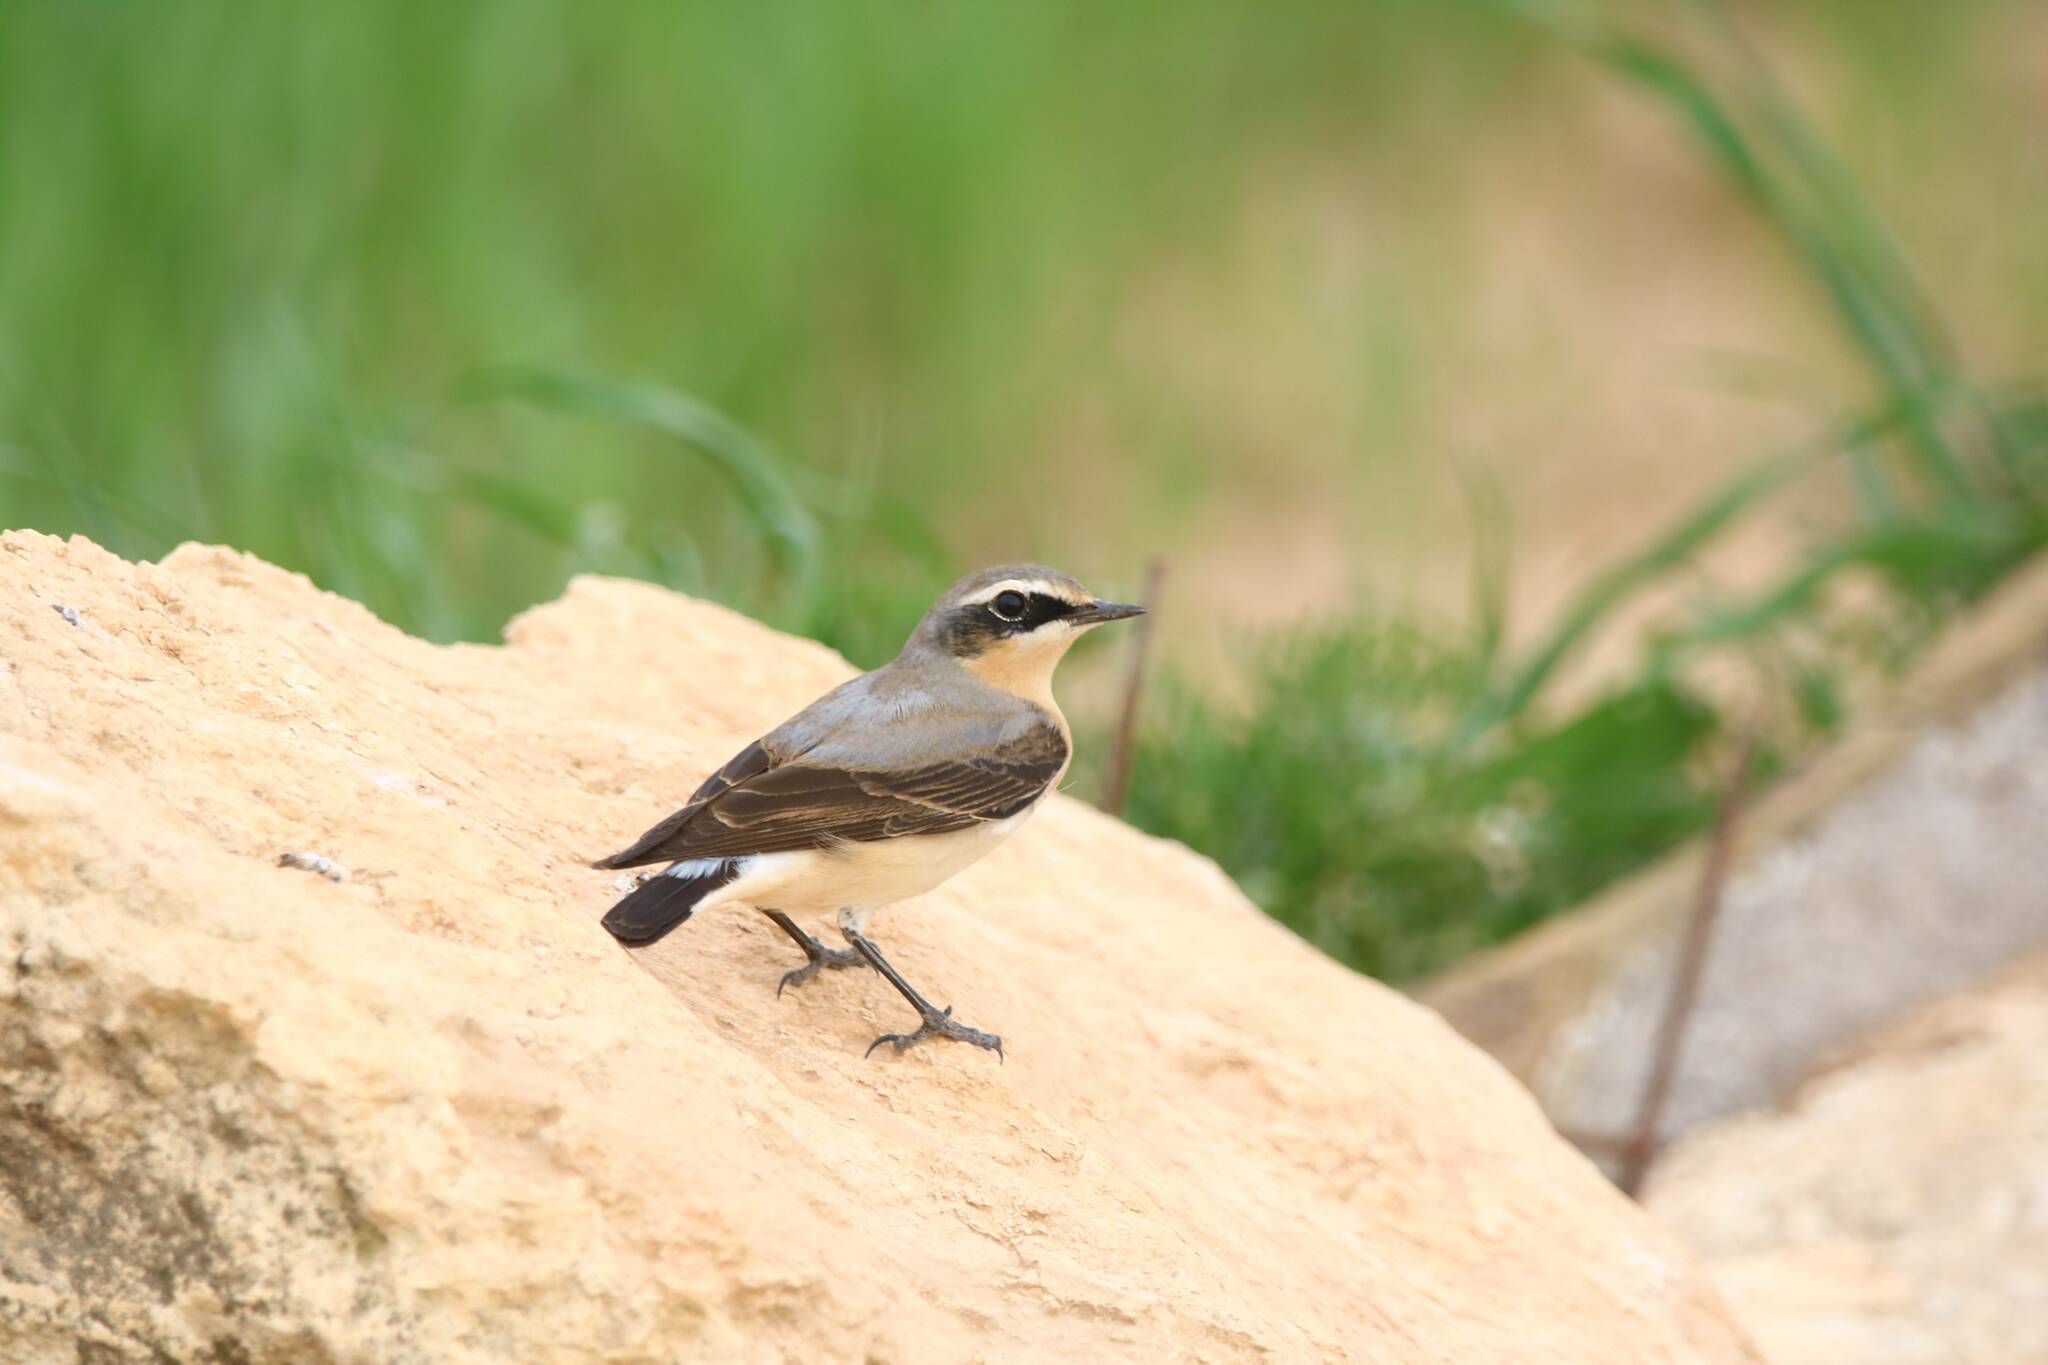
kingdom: Animalia
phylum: Chordata
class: Aves
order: Passeriformes
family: Muscicapidae
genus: Oenanthe
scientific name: Oenanthe oenanthe
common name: Northern wheatear
